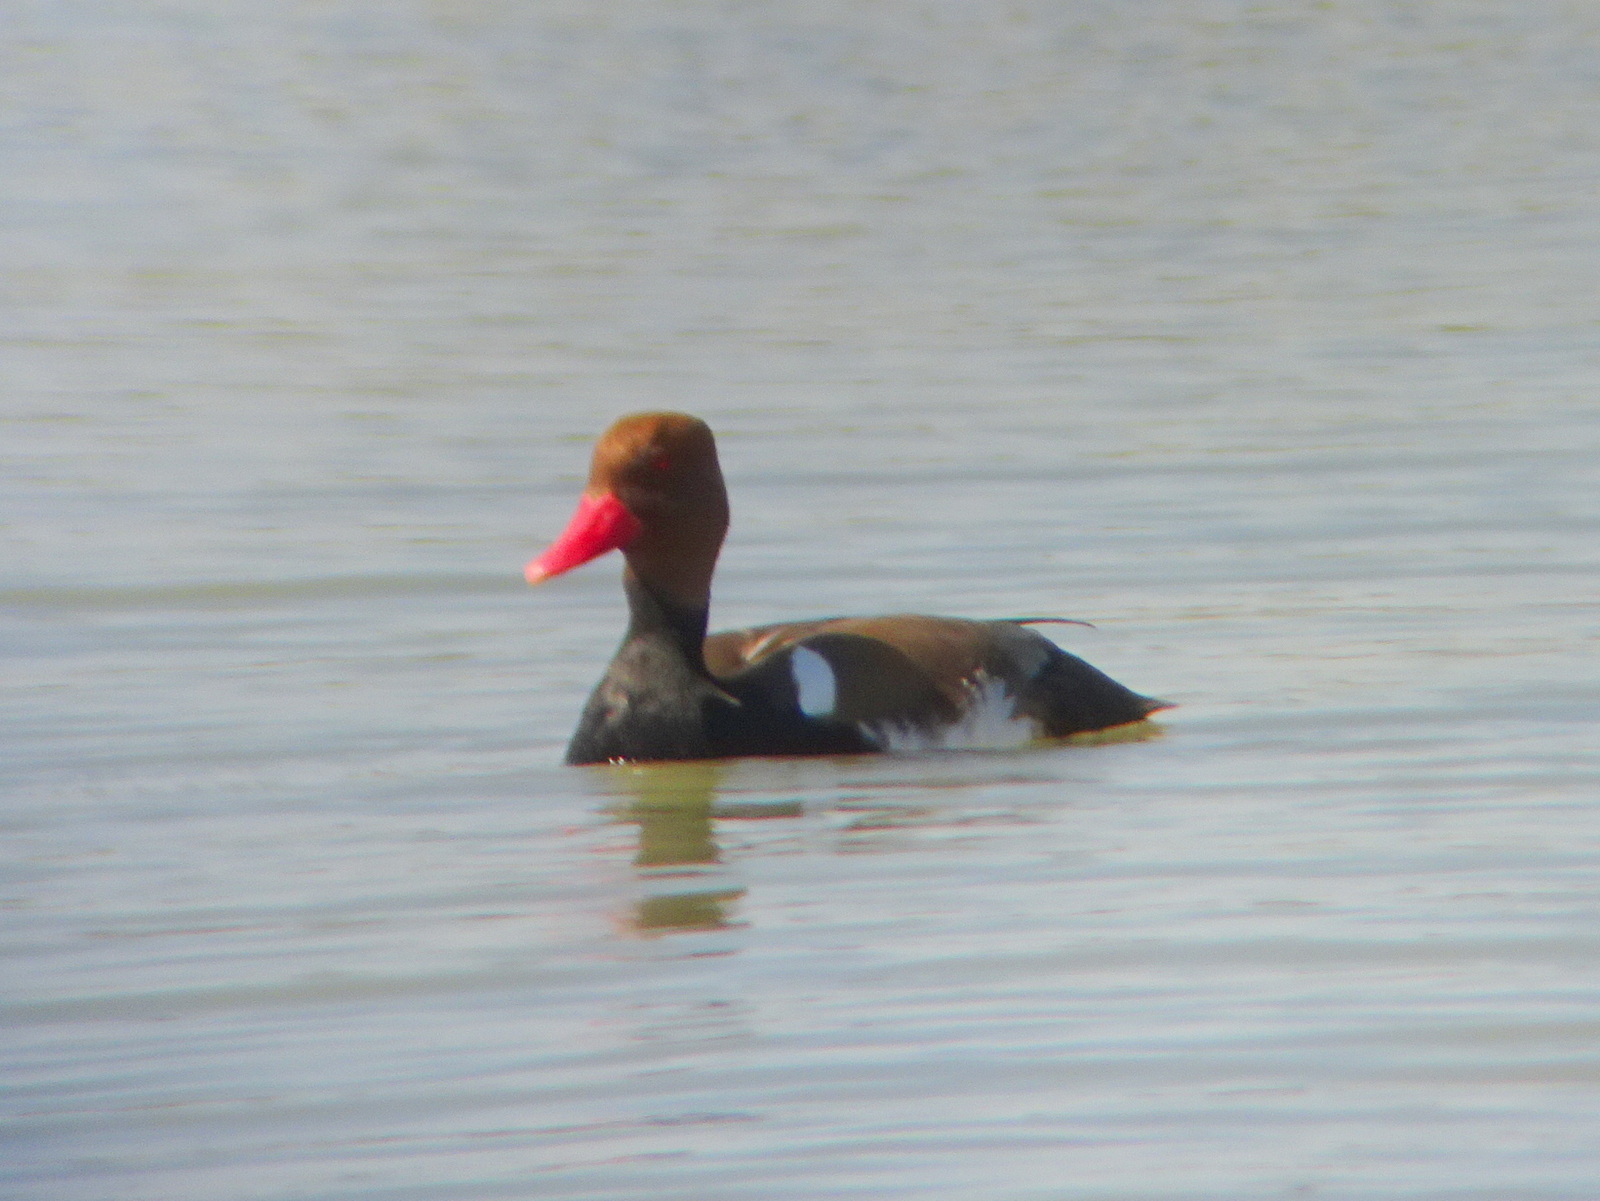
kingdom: Animalia
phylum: Chordata
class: Aves
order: Anseriformes
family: Anatidae
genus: Netta
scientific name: Netta rufina
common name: Red-crested pochard
